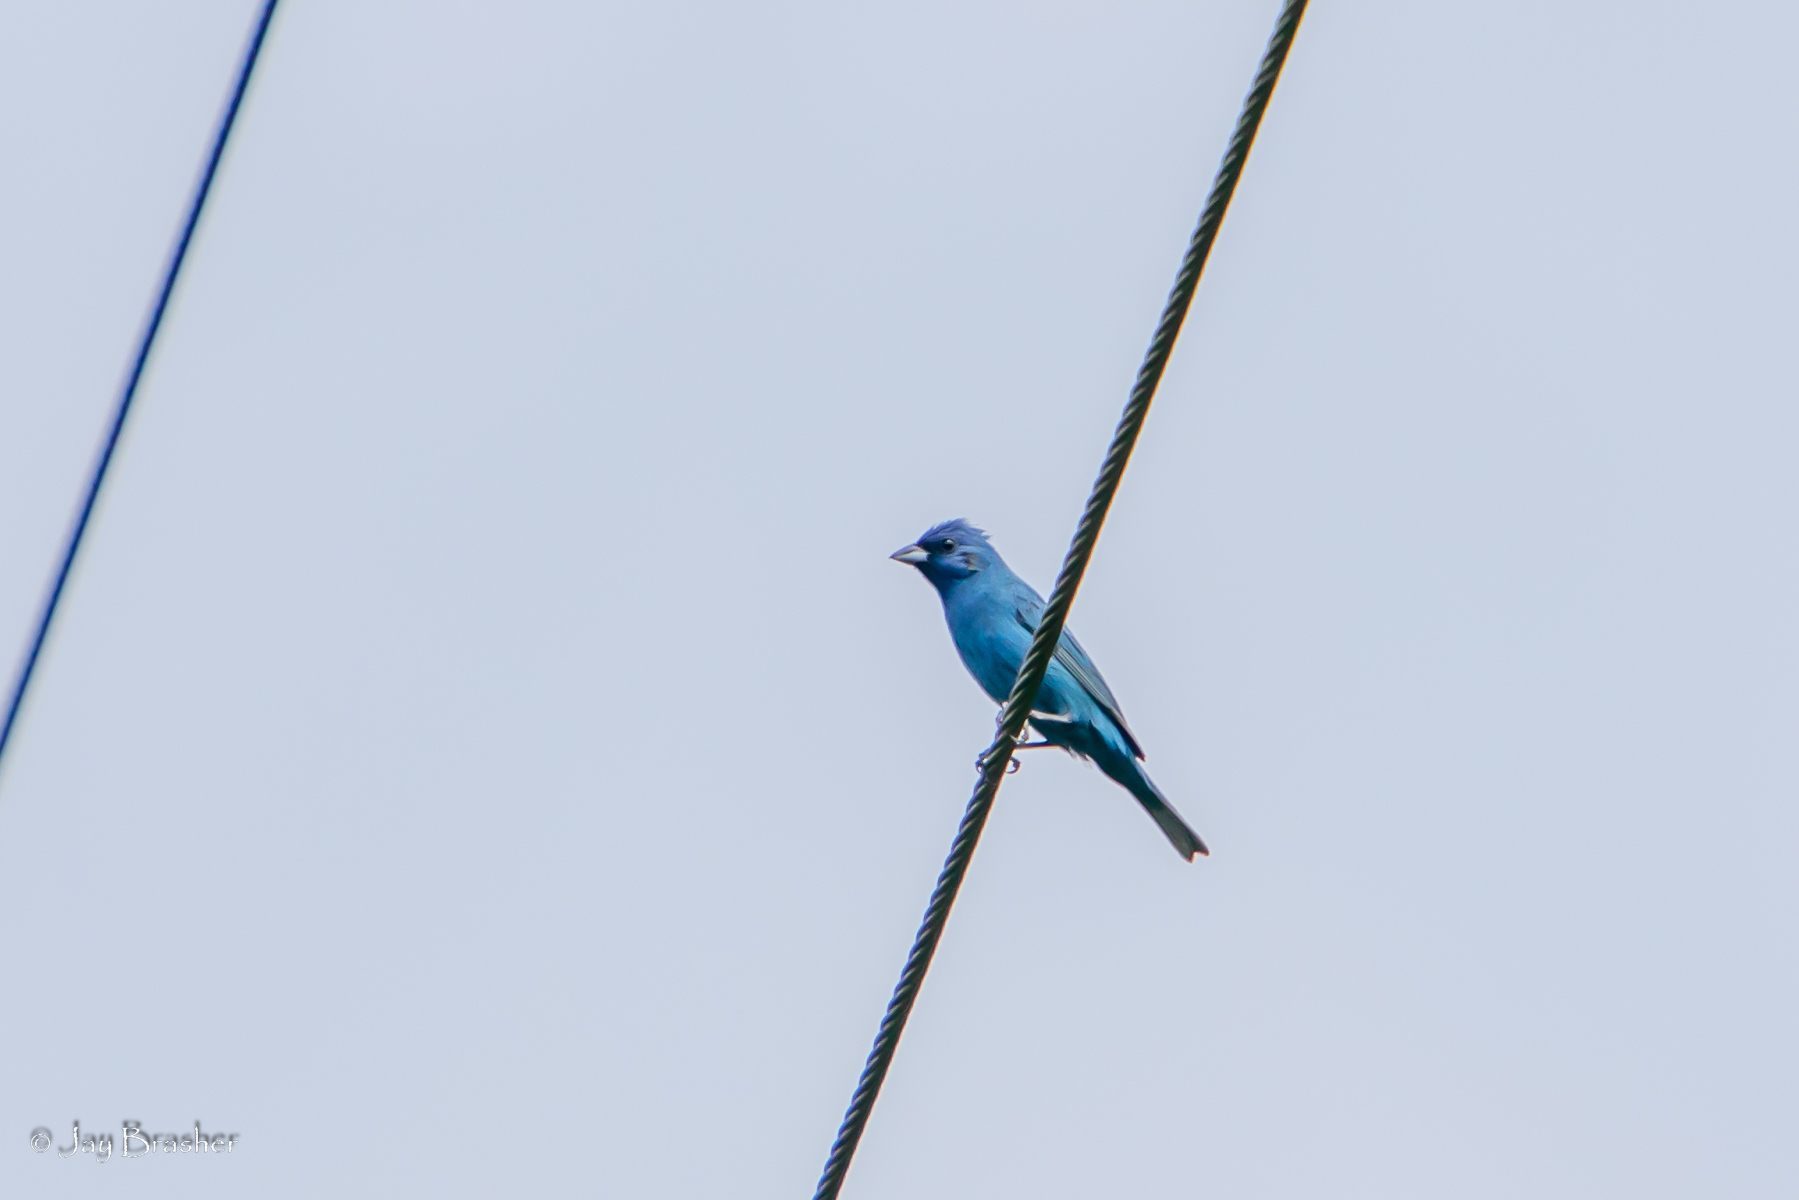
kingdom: Animalia
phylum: Chordata
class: Aves
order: Passeriformes
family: Cardinalidae
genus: Passerina
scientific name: Passerina cyanea
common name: Indigo bunting
